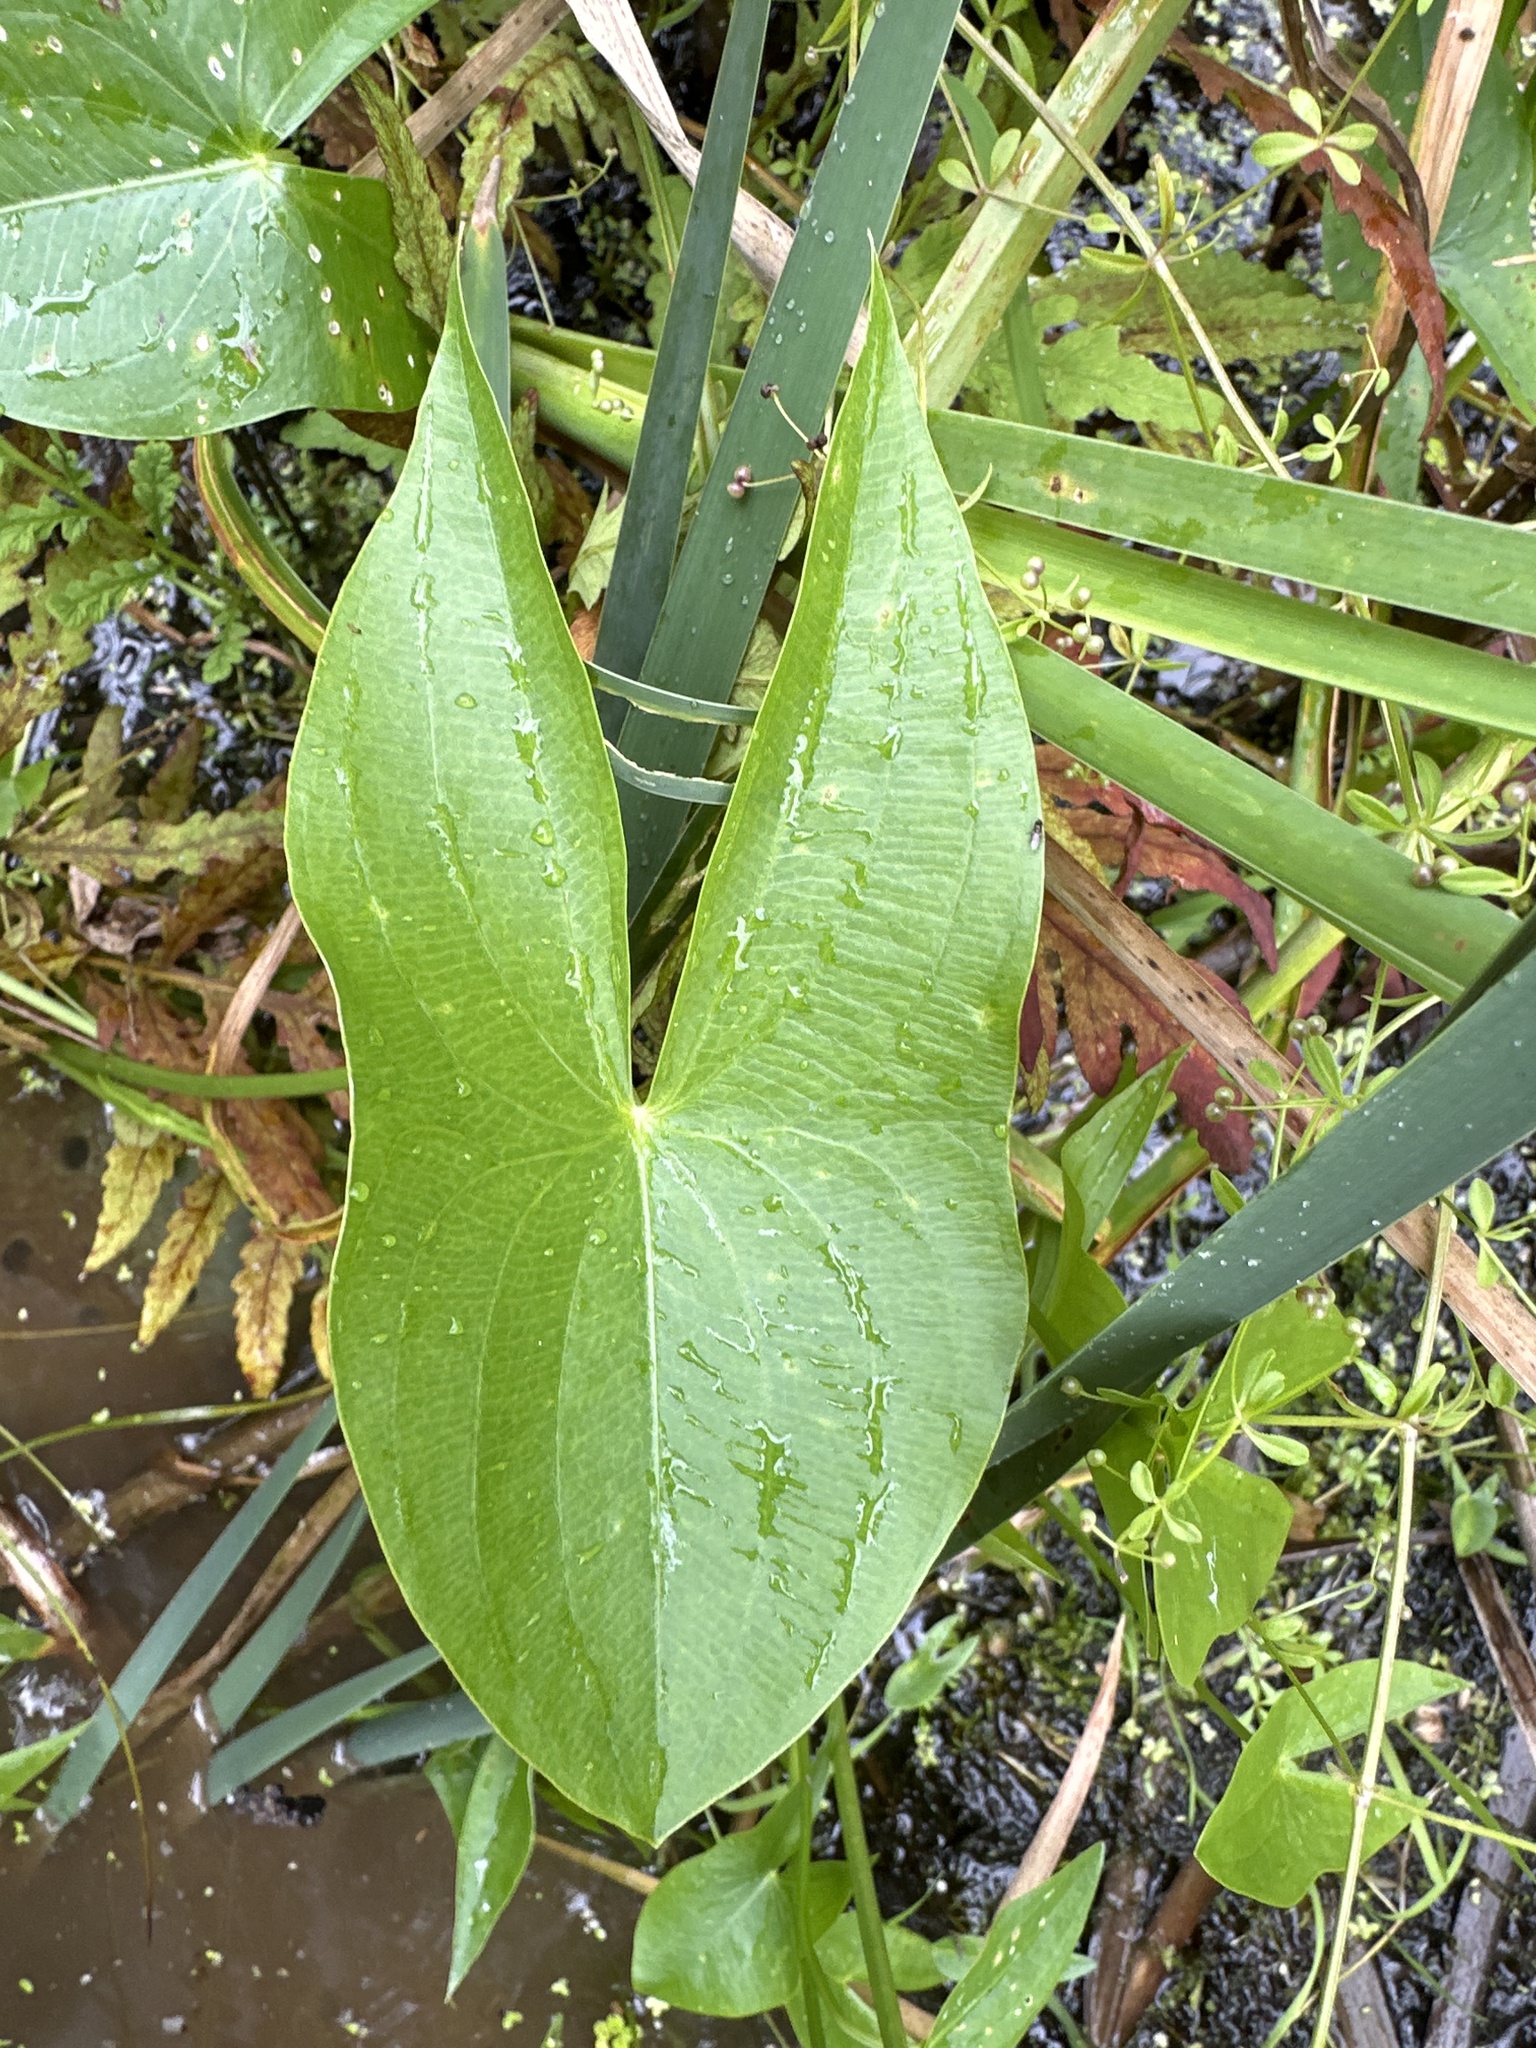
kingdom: Plantae
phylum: Tracheophyta
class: Liliopsida
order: Alismatales
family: Alismataceae
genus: Sagittaria
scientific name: Sagittaria latifolia
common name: Duck-potato
